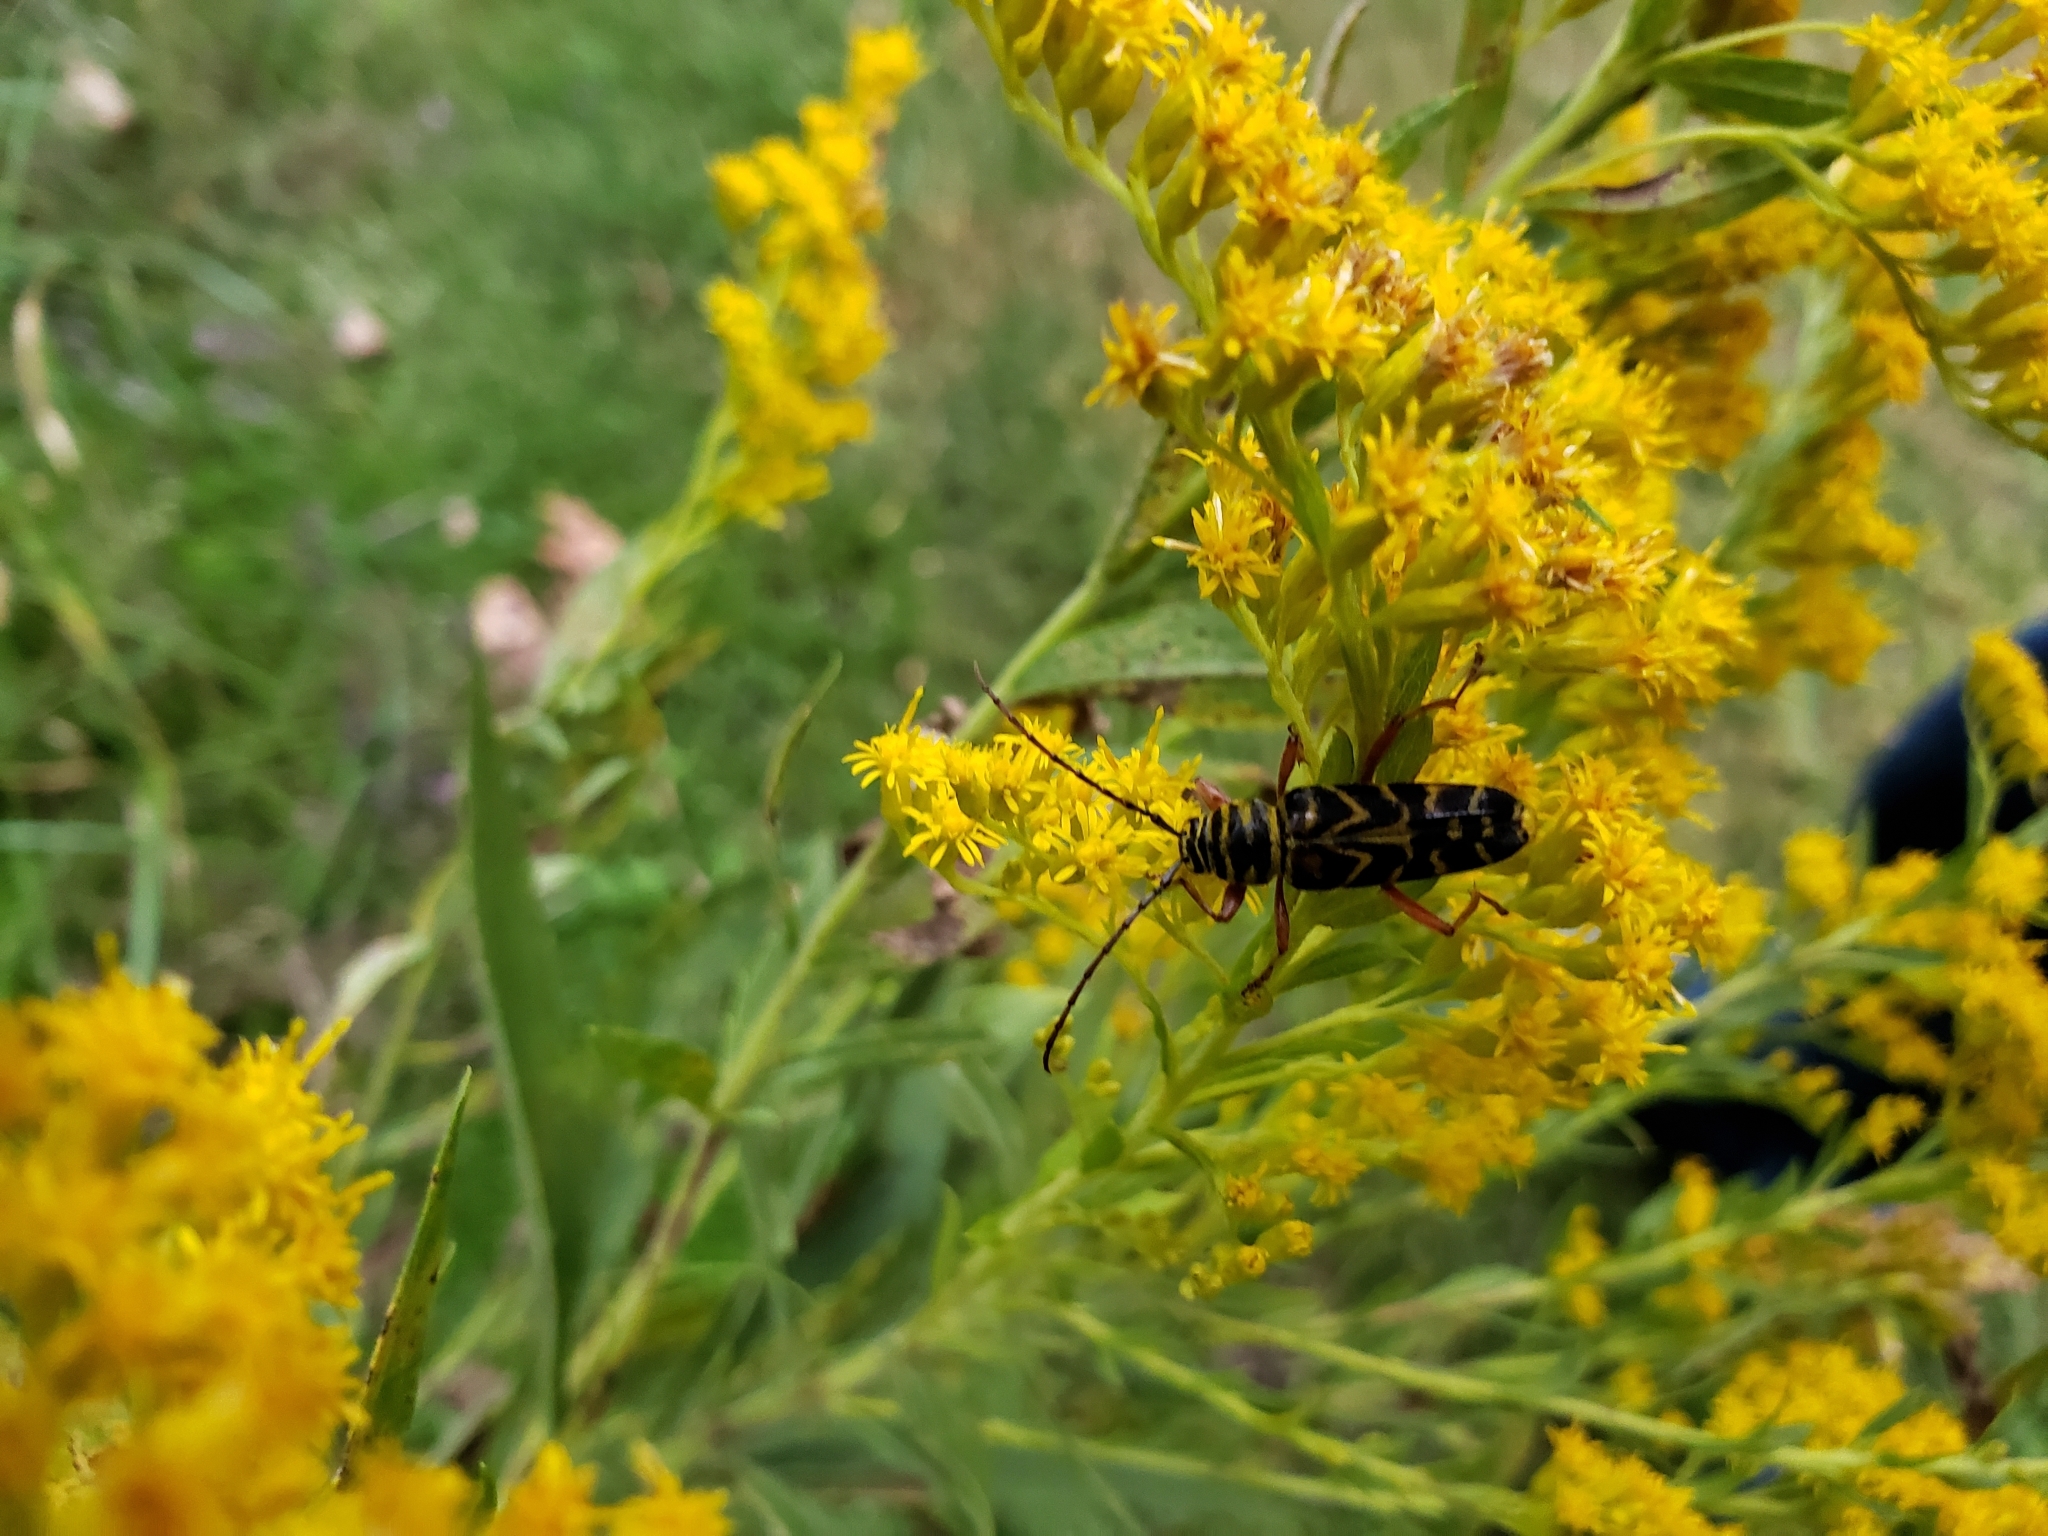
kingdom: Animalia
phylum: Arthropoda
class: Insecta
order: Coleoptera
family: Cerambycidae
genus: Megacyllene
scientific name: Megacyllene robiniae
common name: Locust borer
